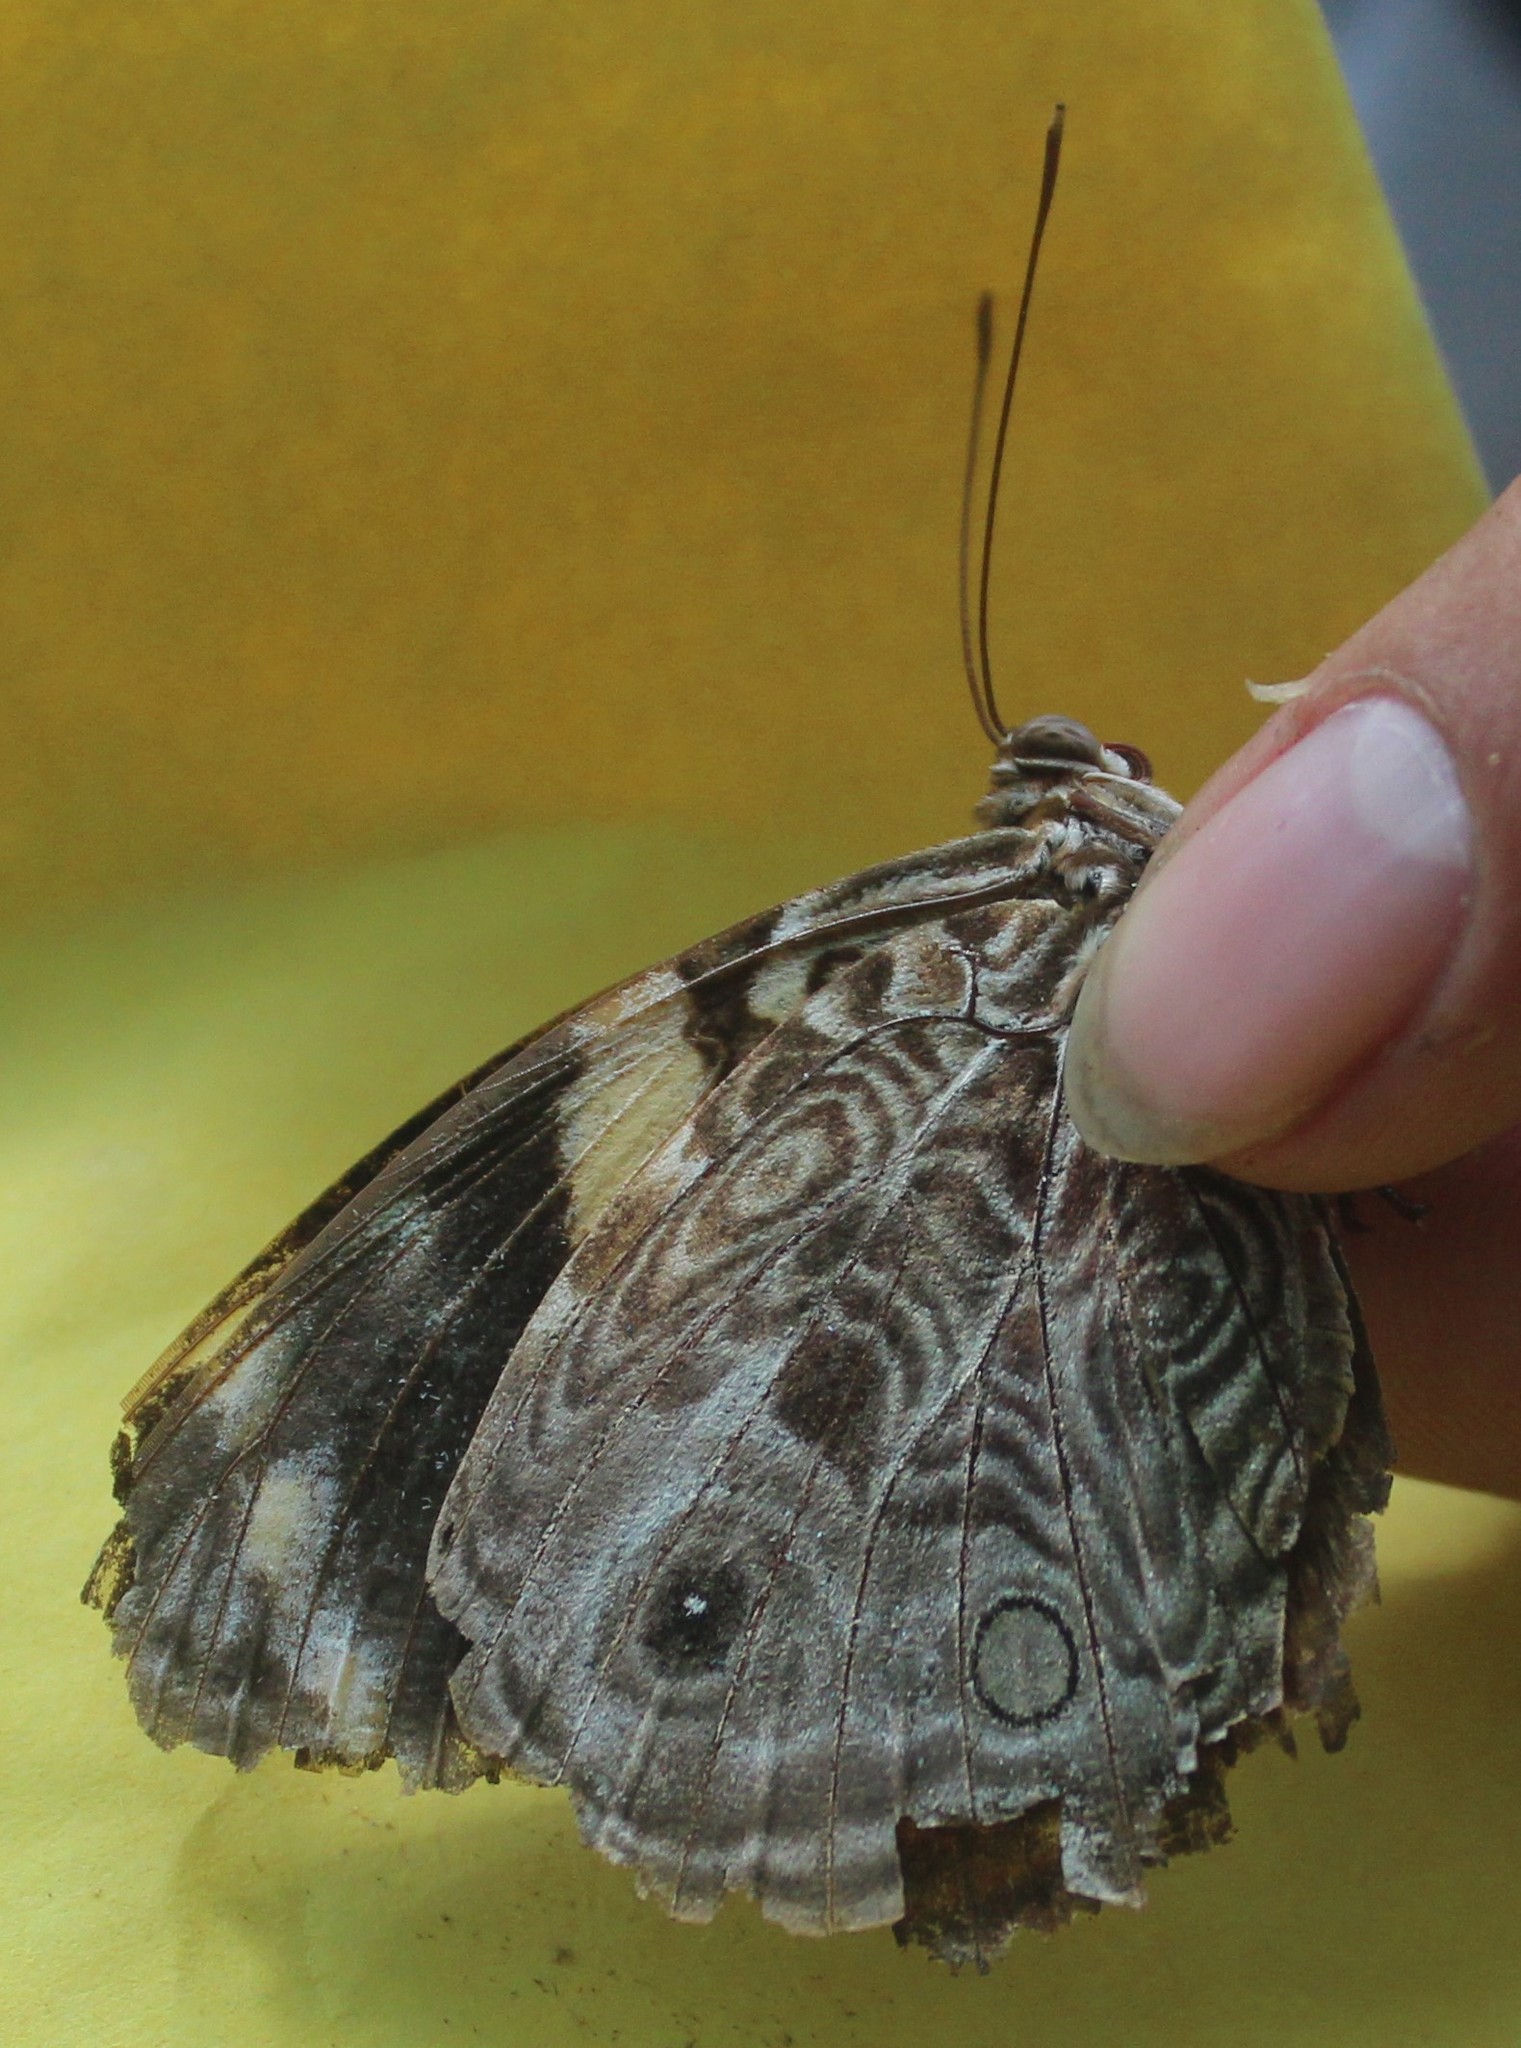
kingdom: Animalia
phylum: Arthropoda
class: Insecta
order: Lepidoptera
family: Nymphalidae
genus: Smyrna
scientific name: Smyrna blomfildia
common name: Blomfild's beauty
